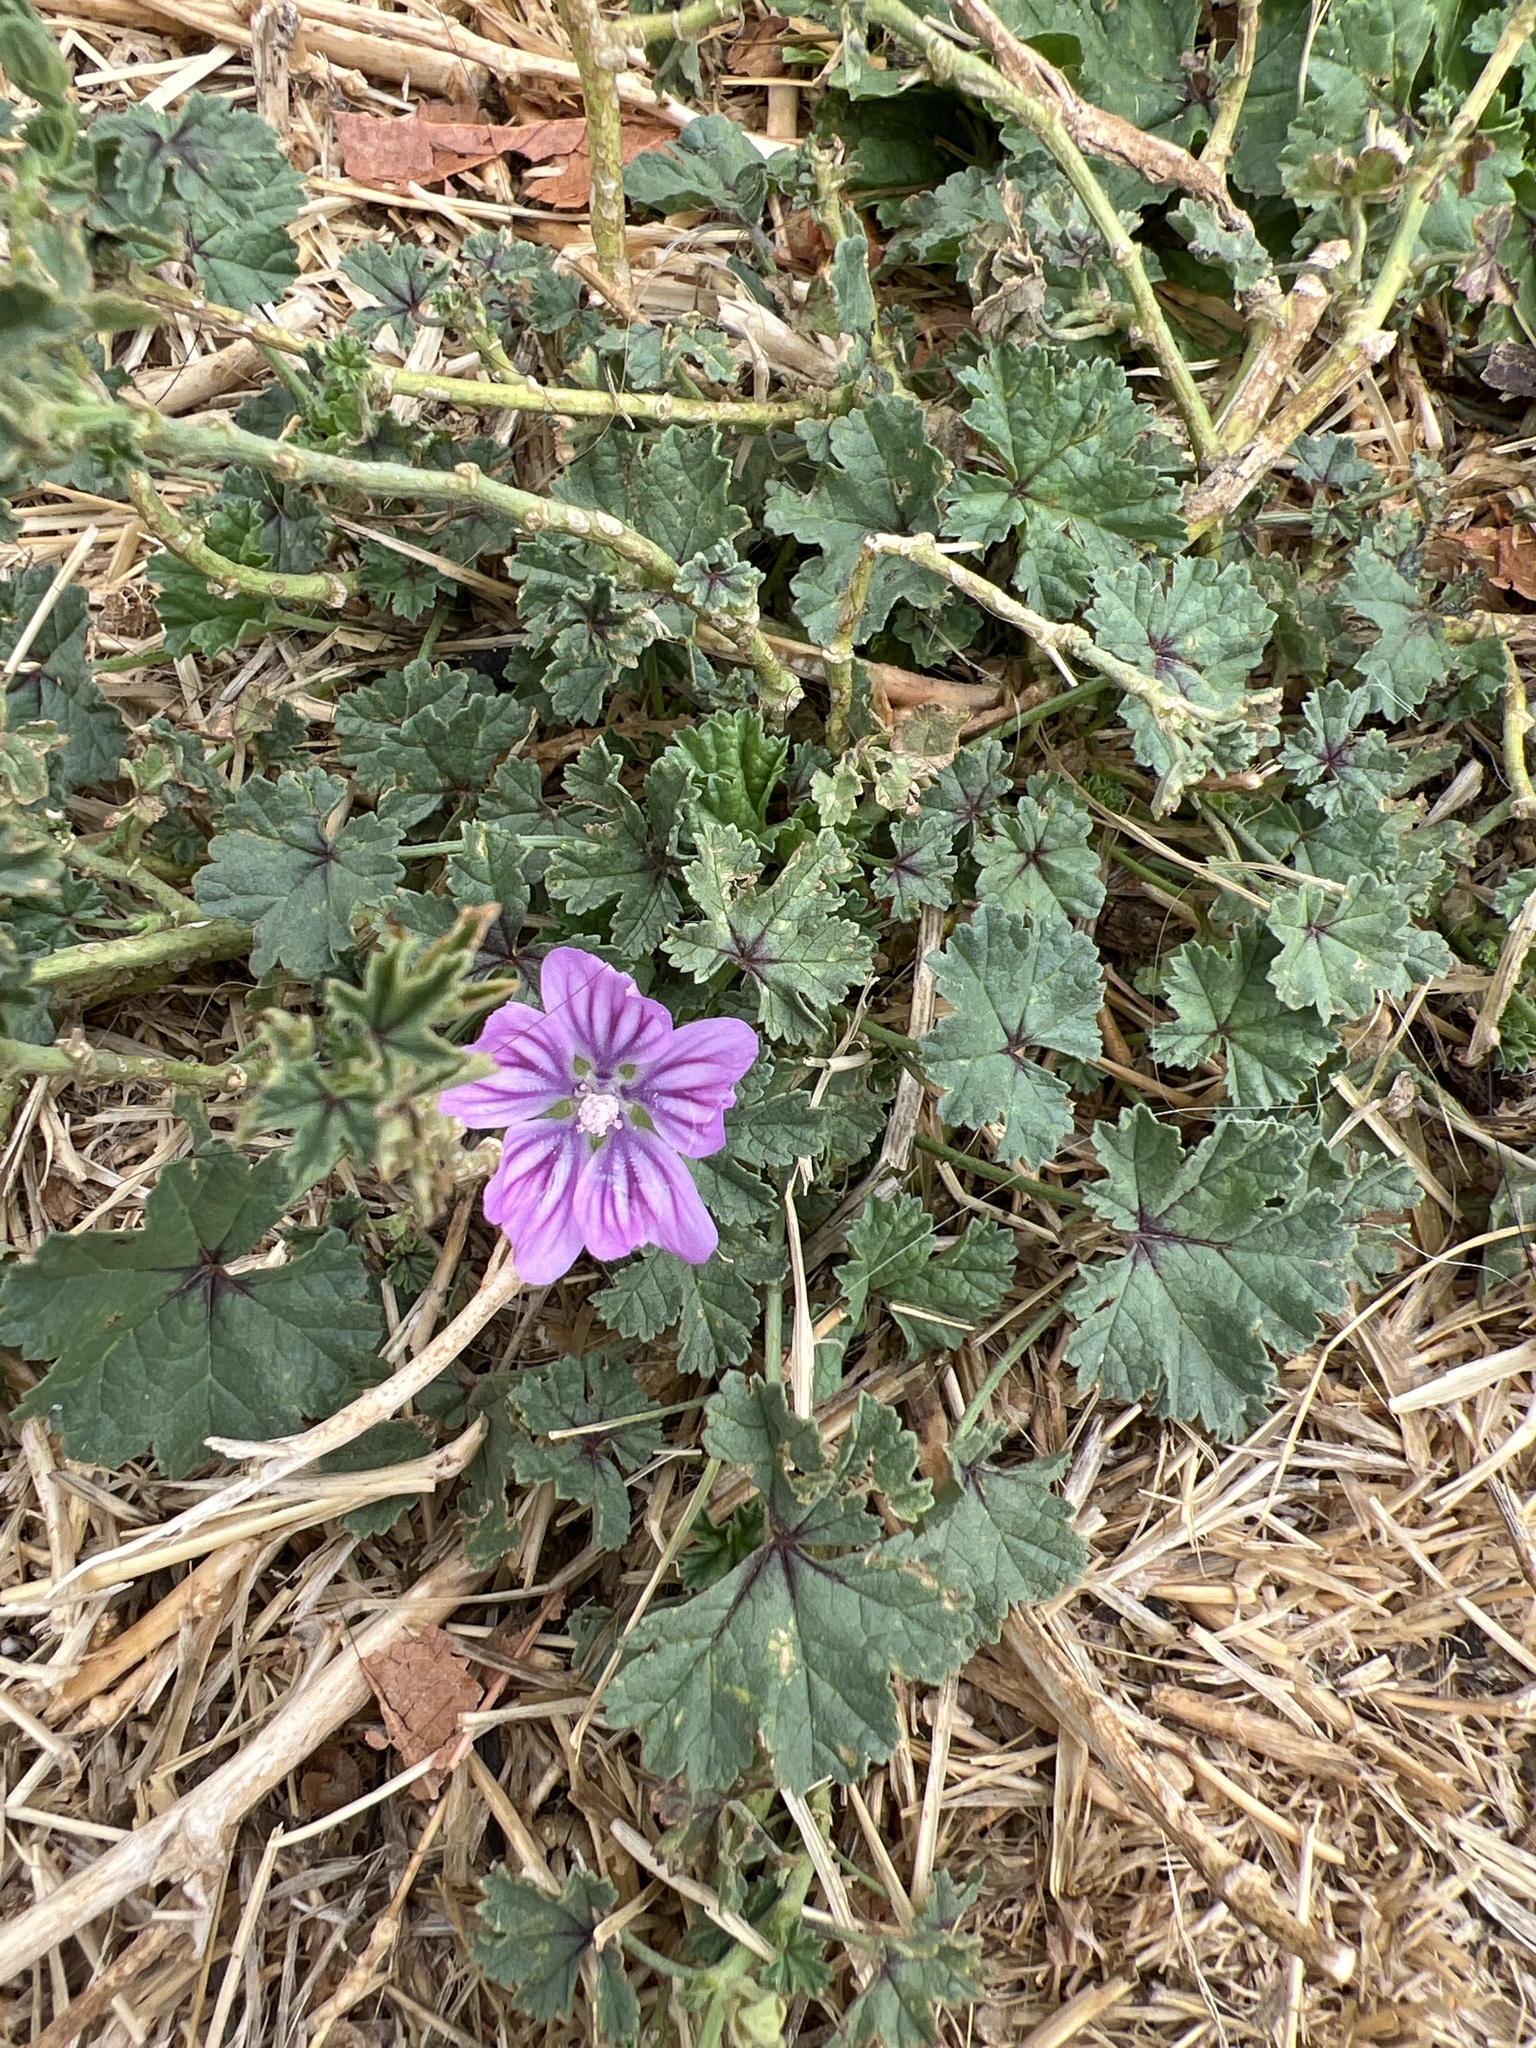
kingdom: Plantae
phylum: Tracheophyta
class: Magnoliopsida
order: Malvales
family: Malvaceae
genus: Malva
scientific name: Malva sylvestris
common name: Common mallow
